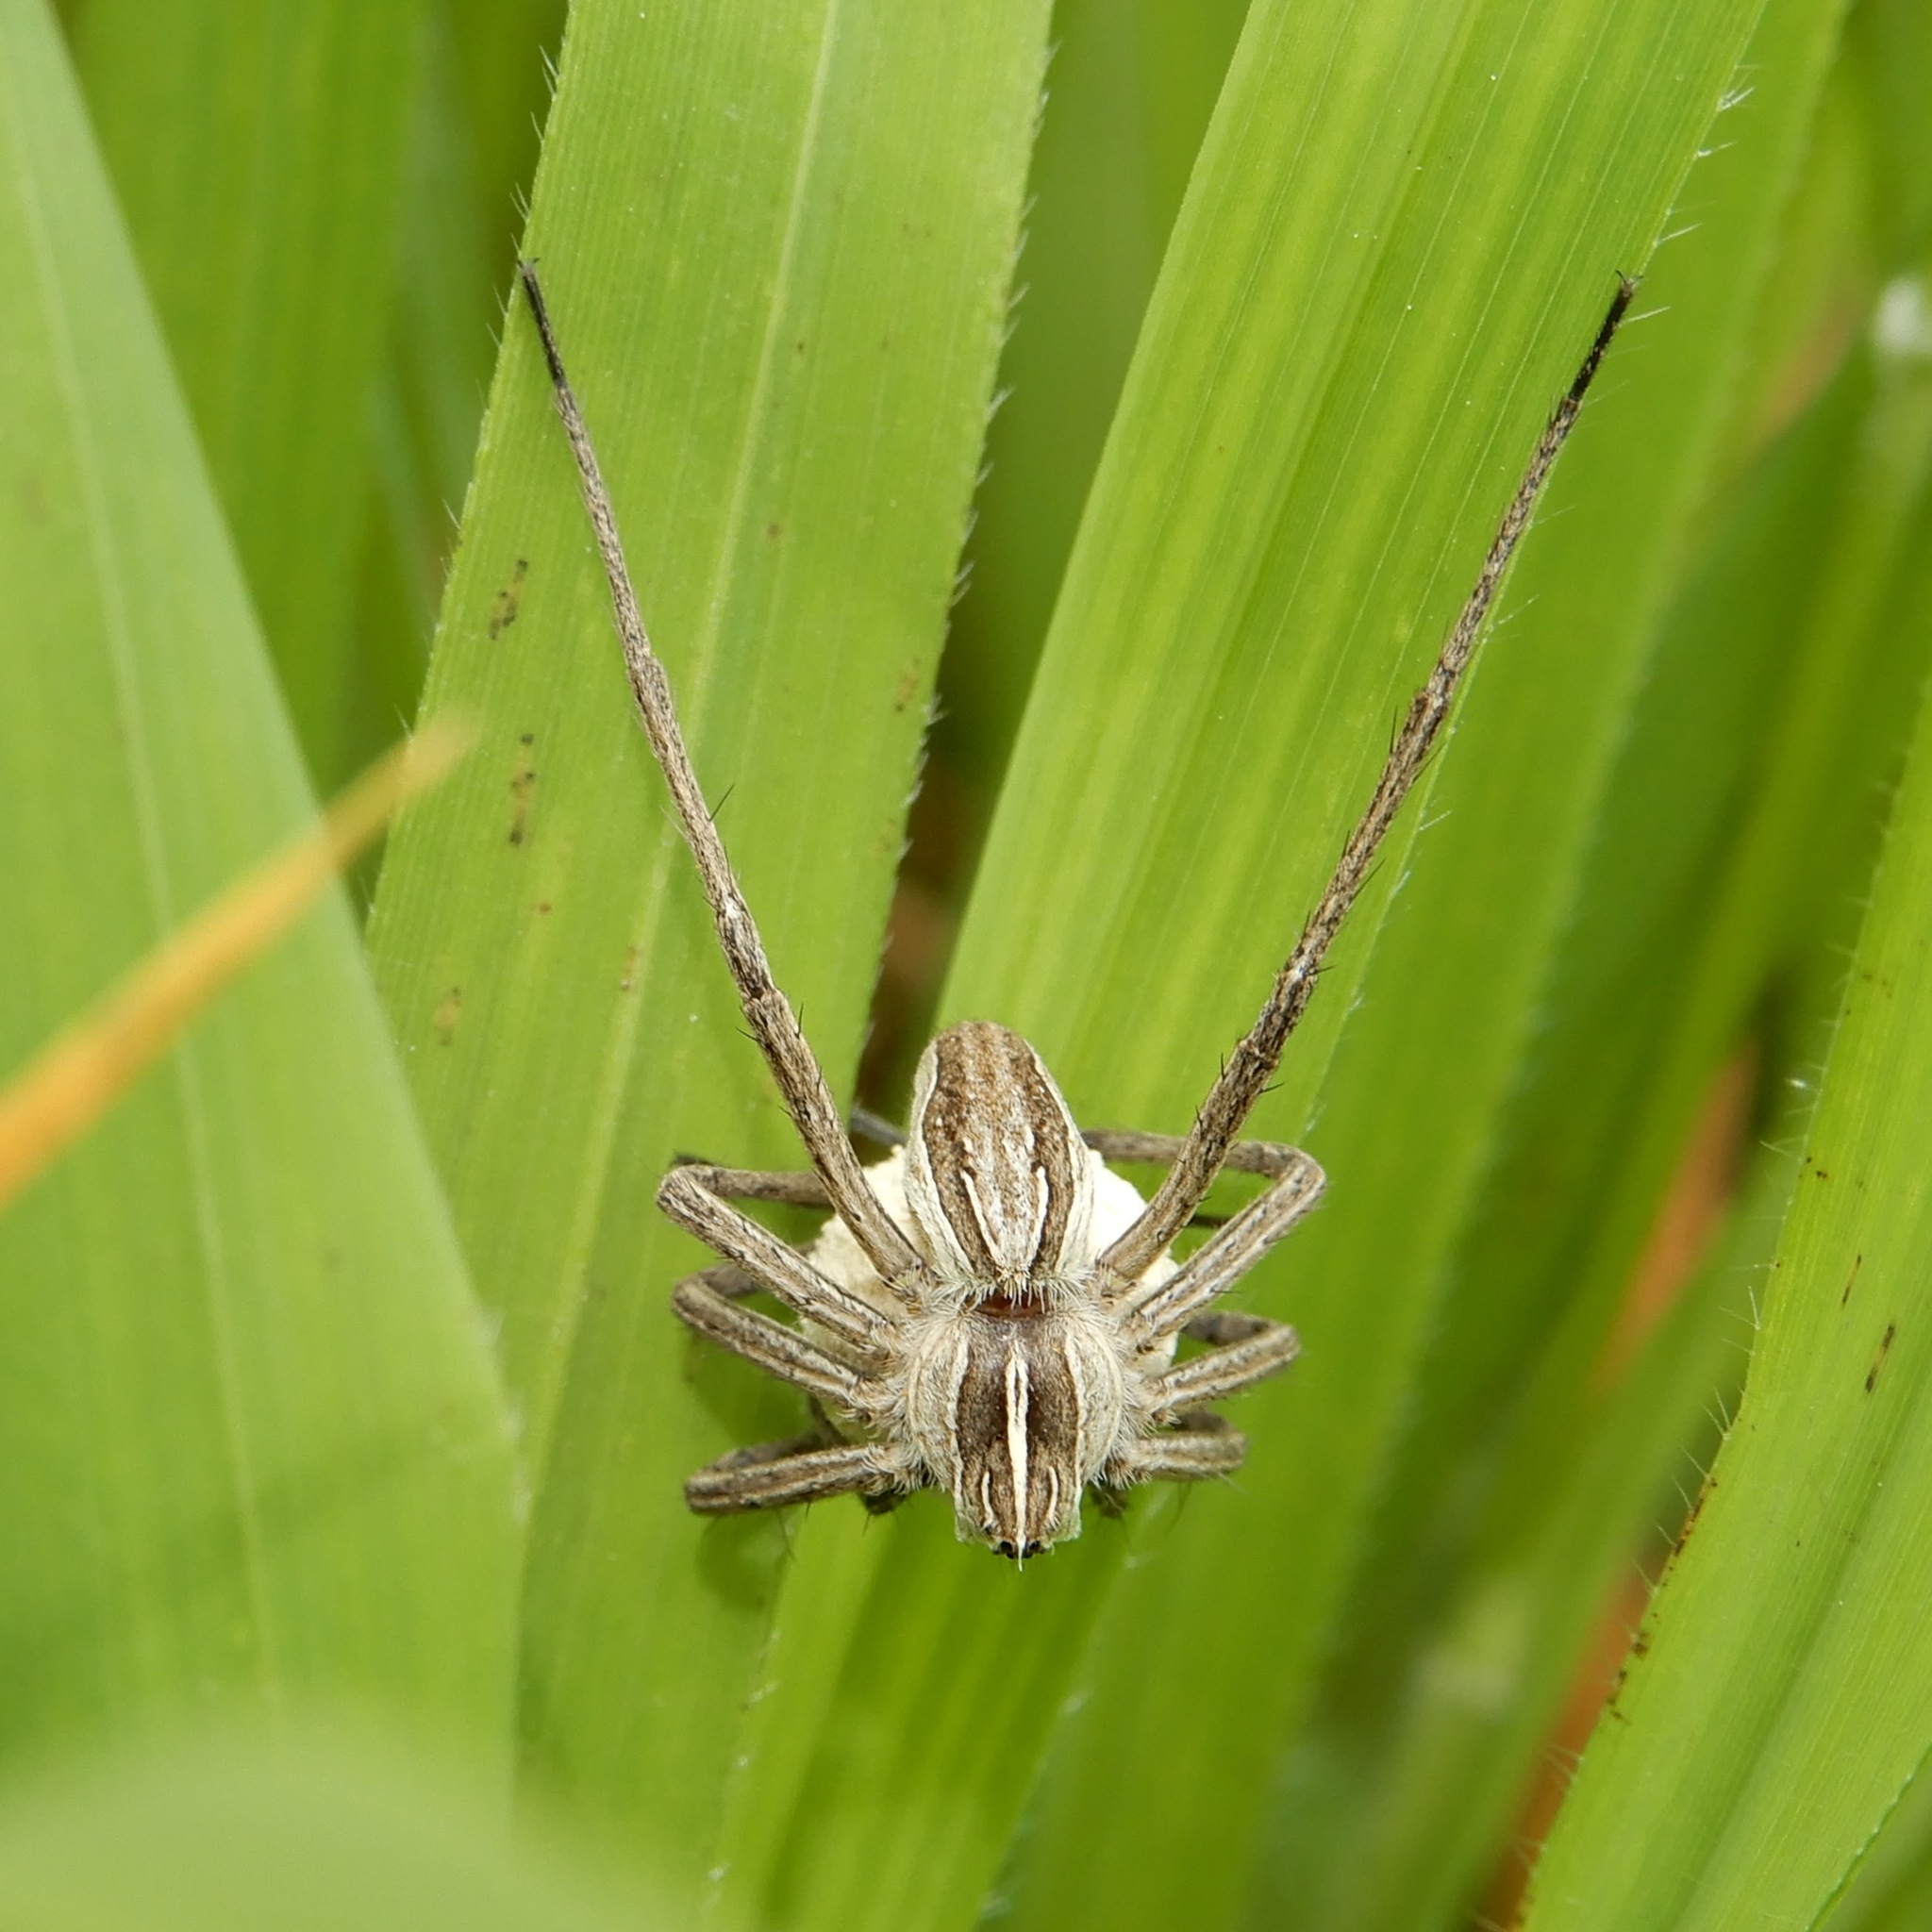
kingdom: Animalia
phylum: Arthropoda
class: Arachnida
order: Araneae
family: Pisauridae
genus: Pisaura
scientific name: Pisaura mirabilis
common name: Tent spider
